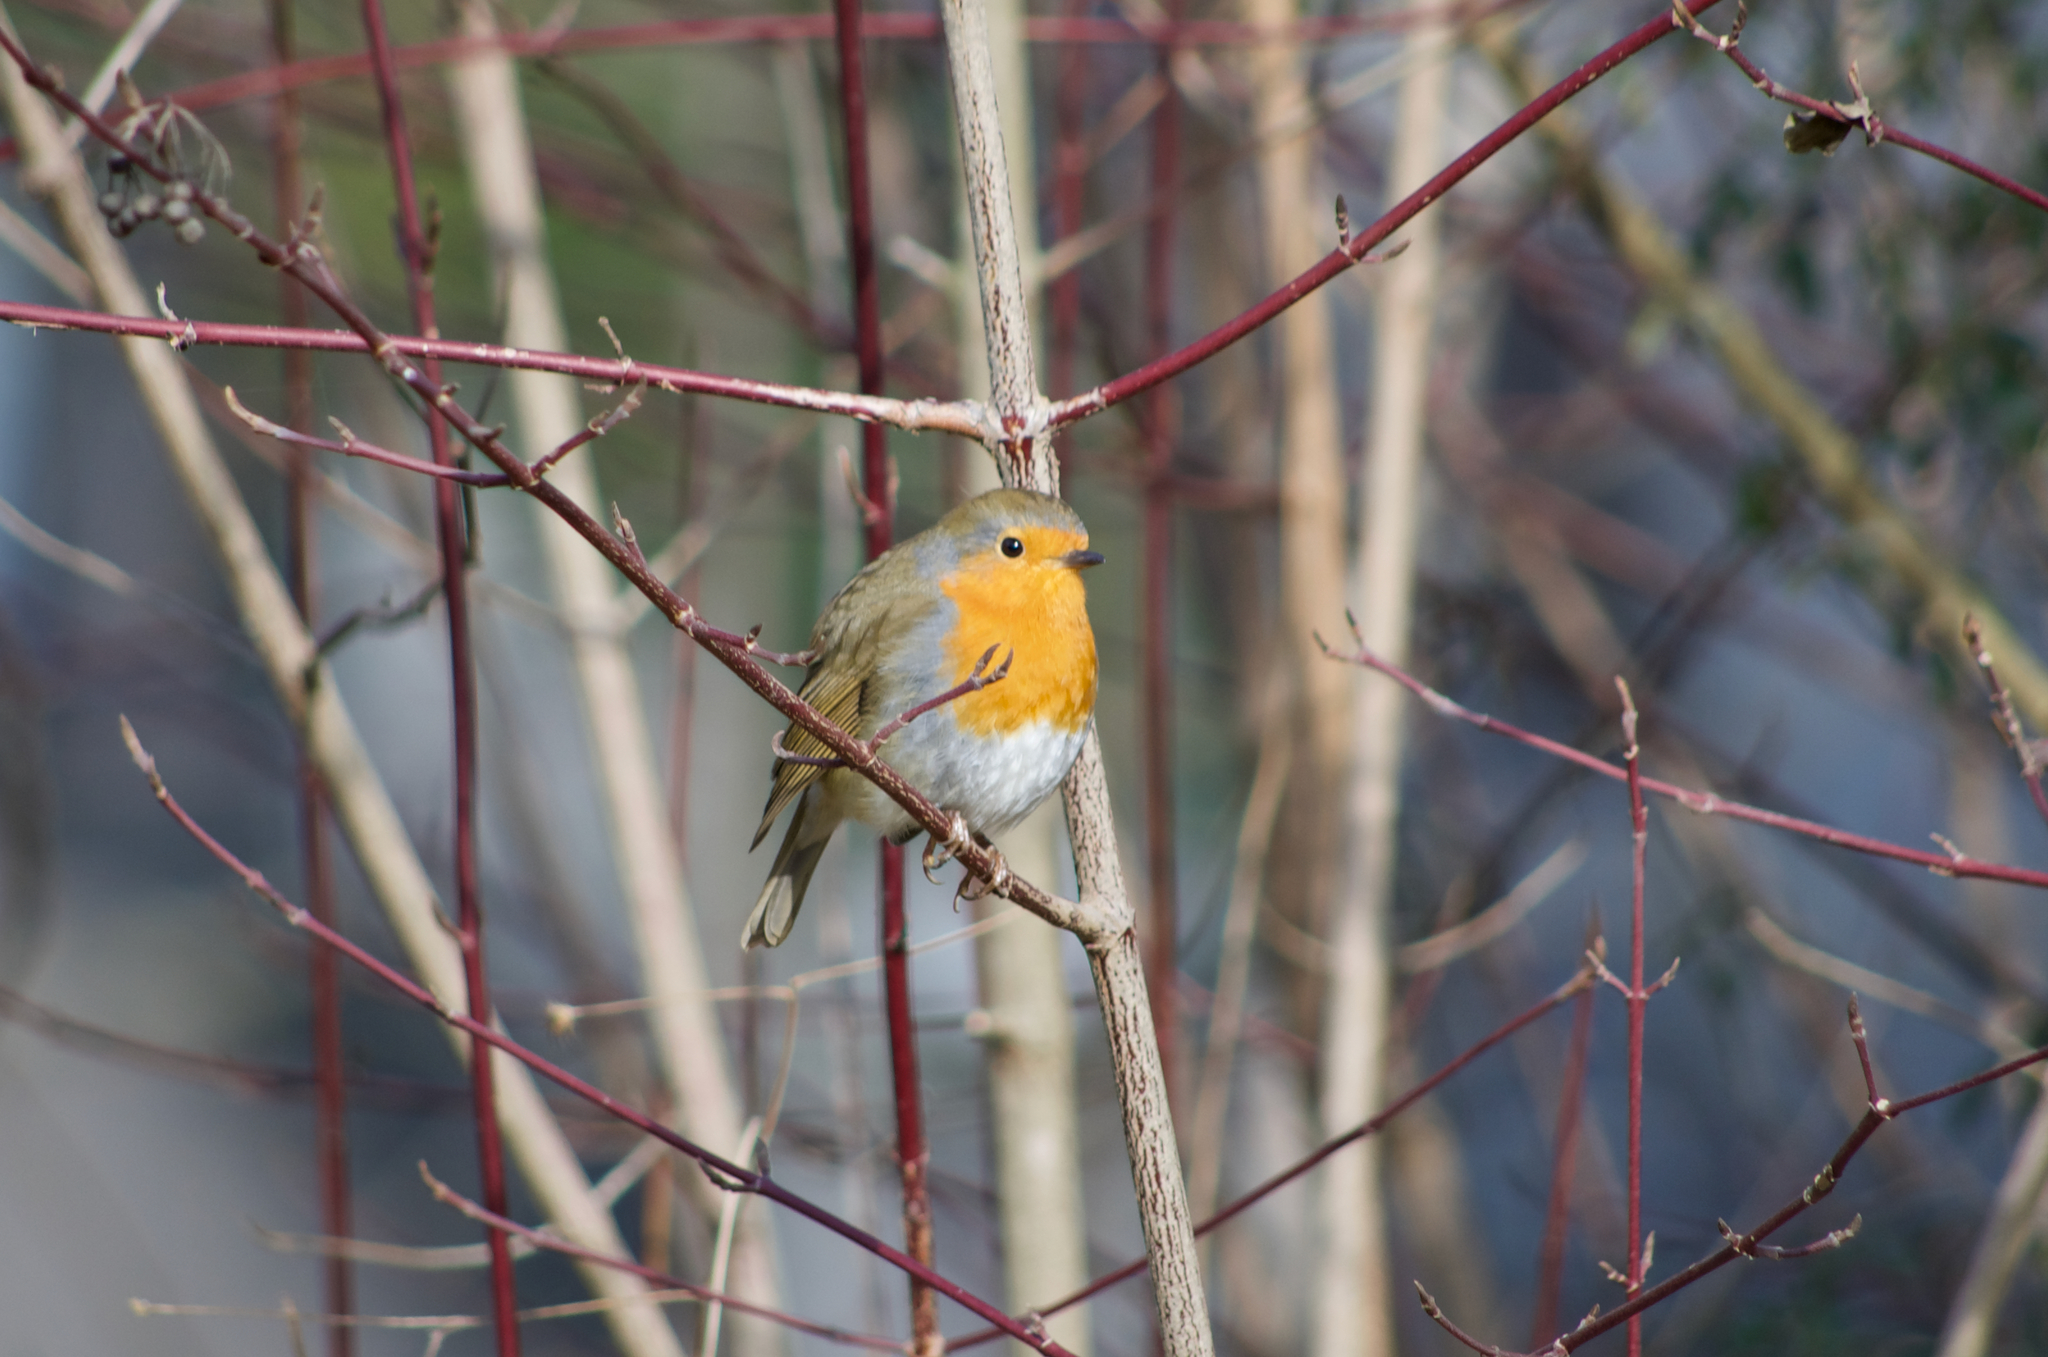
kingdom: Animalia
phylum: Chordata
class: Aves
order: Passeriformes
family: Muscicapidae
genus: Erithacus
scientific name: Erithacus rubecula
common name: European robin
